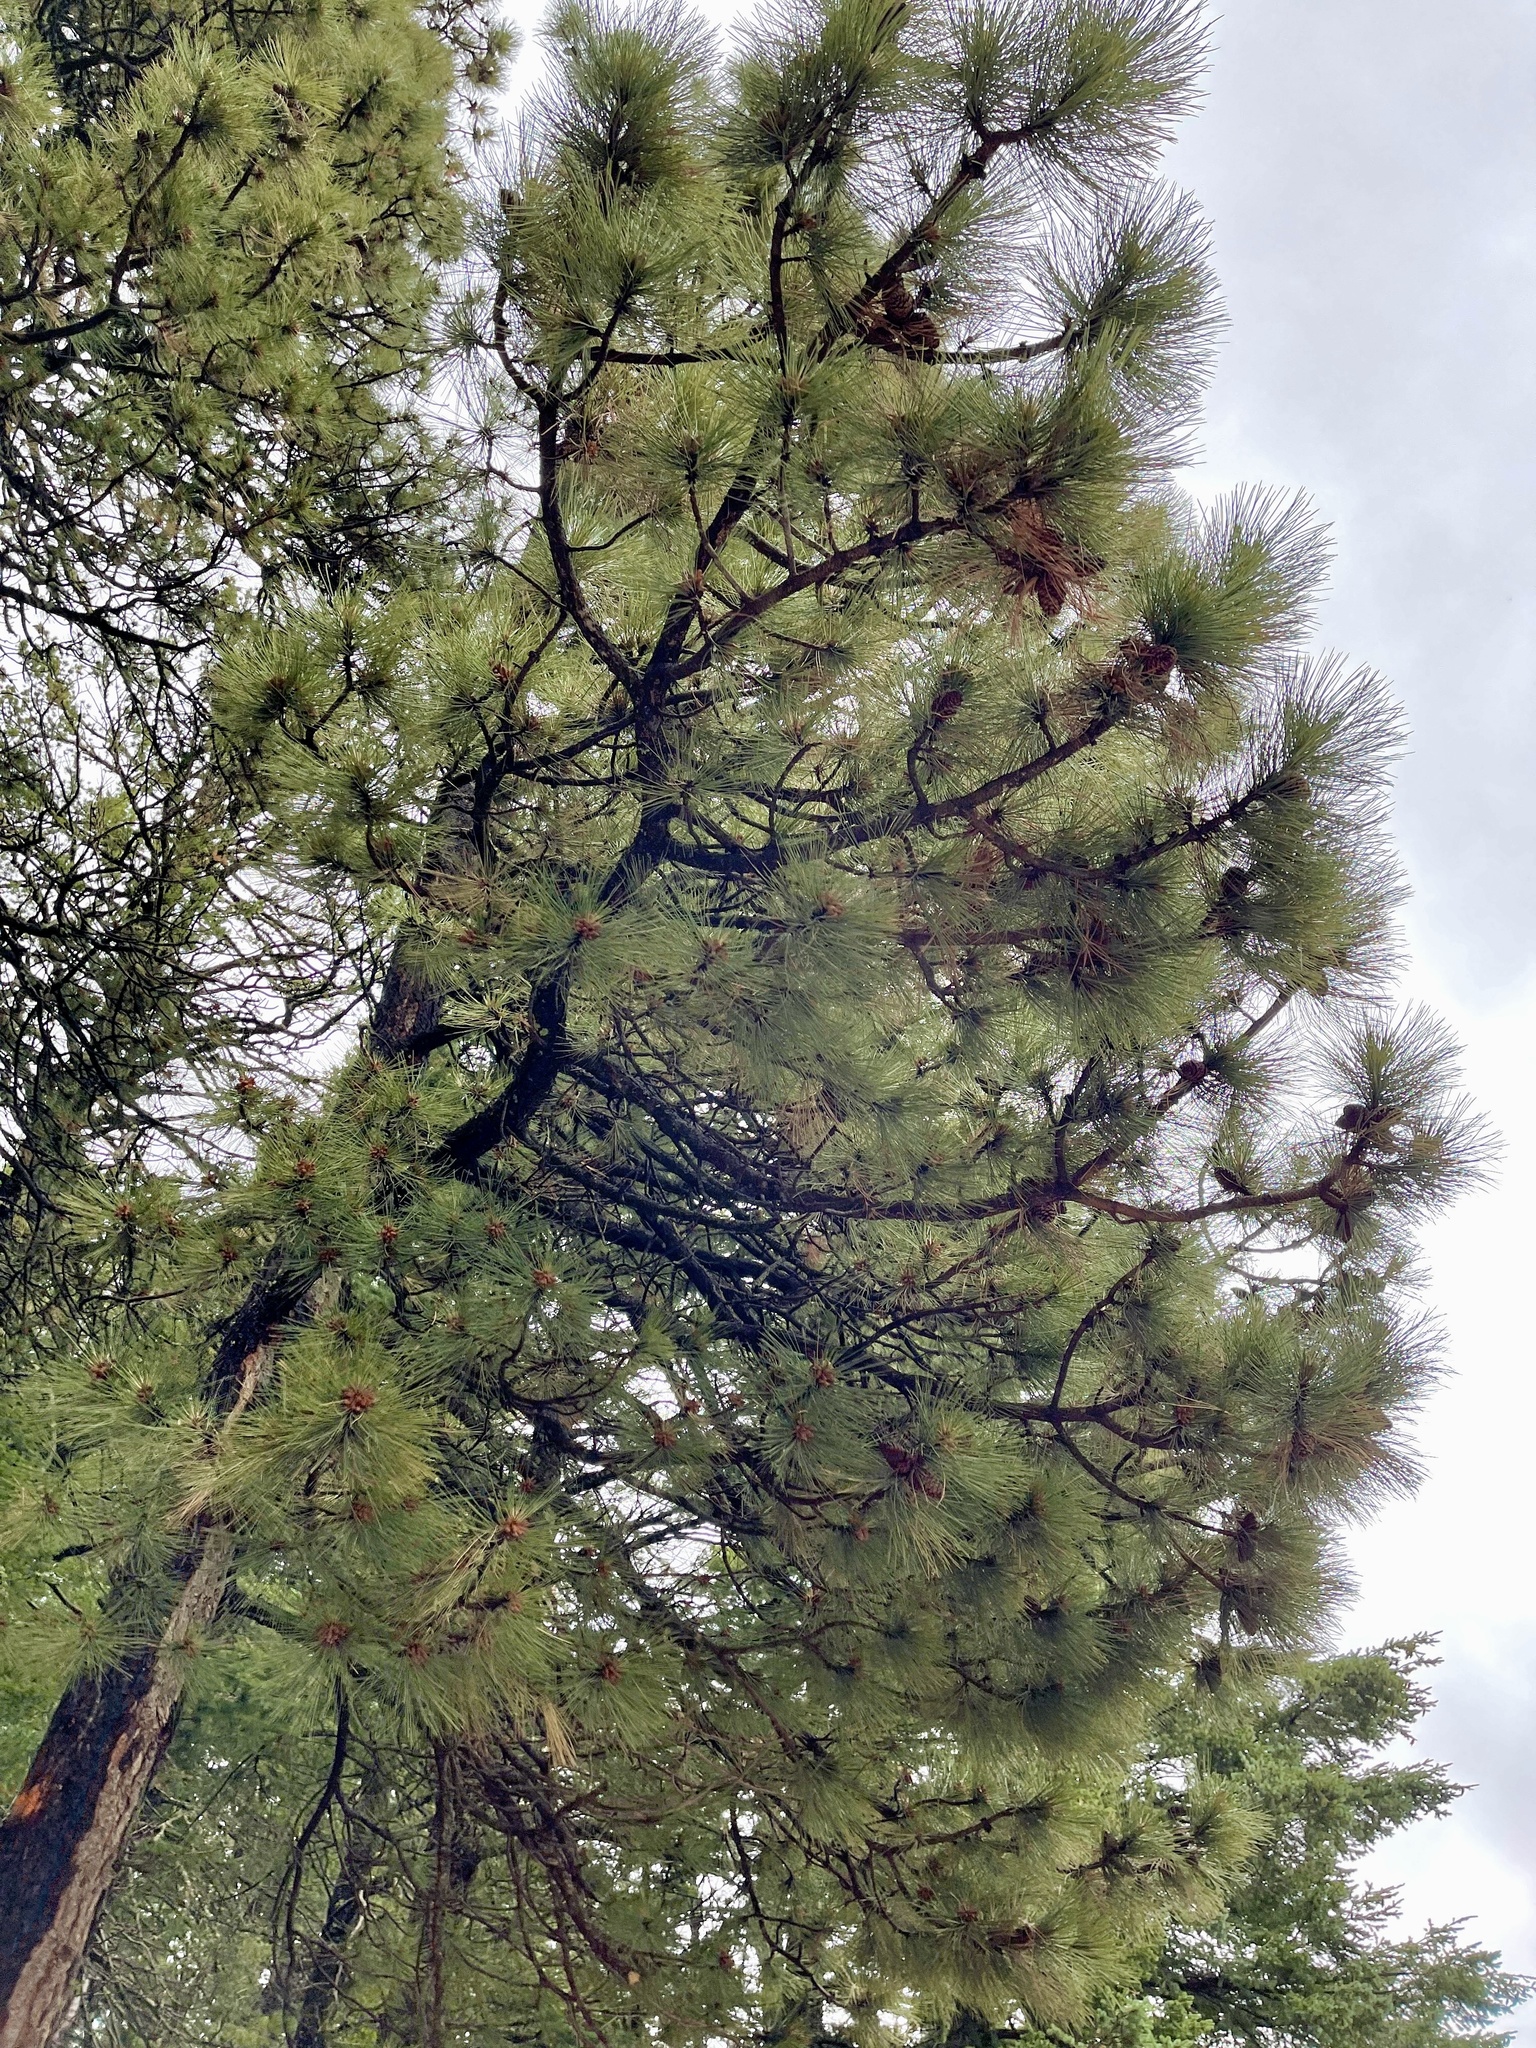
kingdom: Plantae
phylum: Tracheophyta
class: Pinopsida
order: Pinales
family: Pinaceae
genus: Pinus
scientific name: Pinus ponderosa
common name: Western yellow-pine
